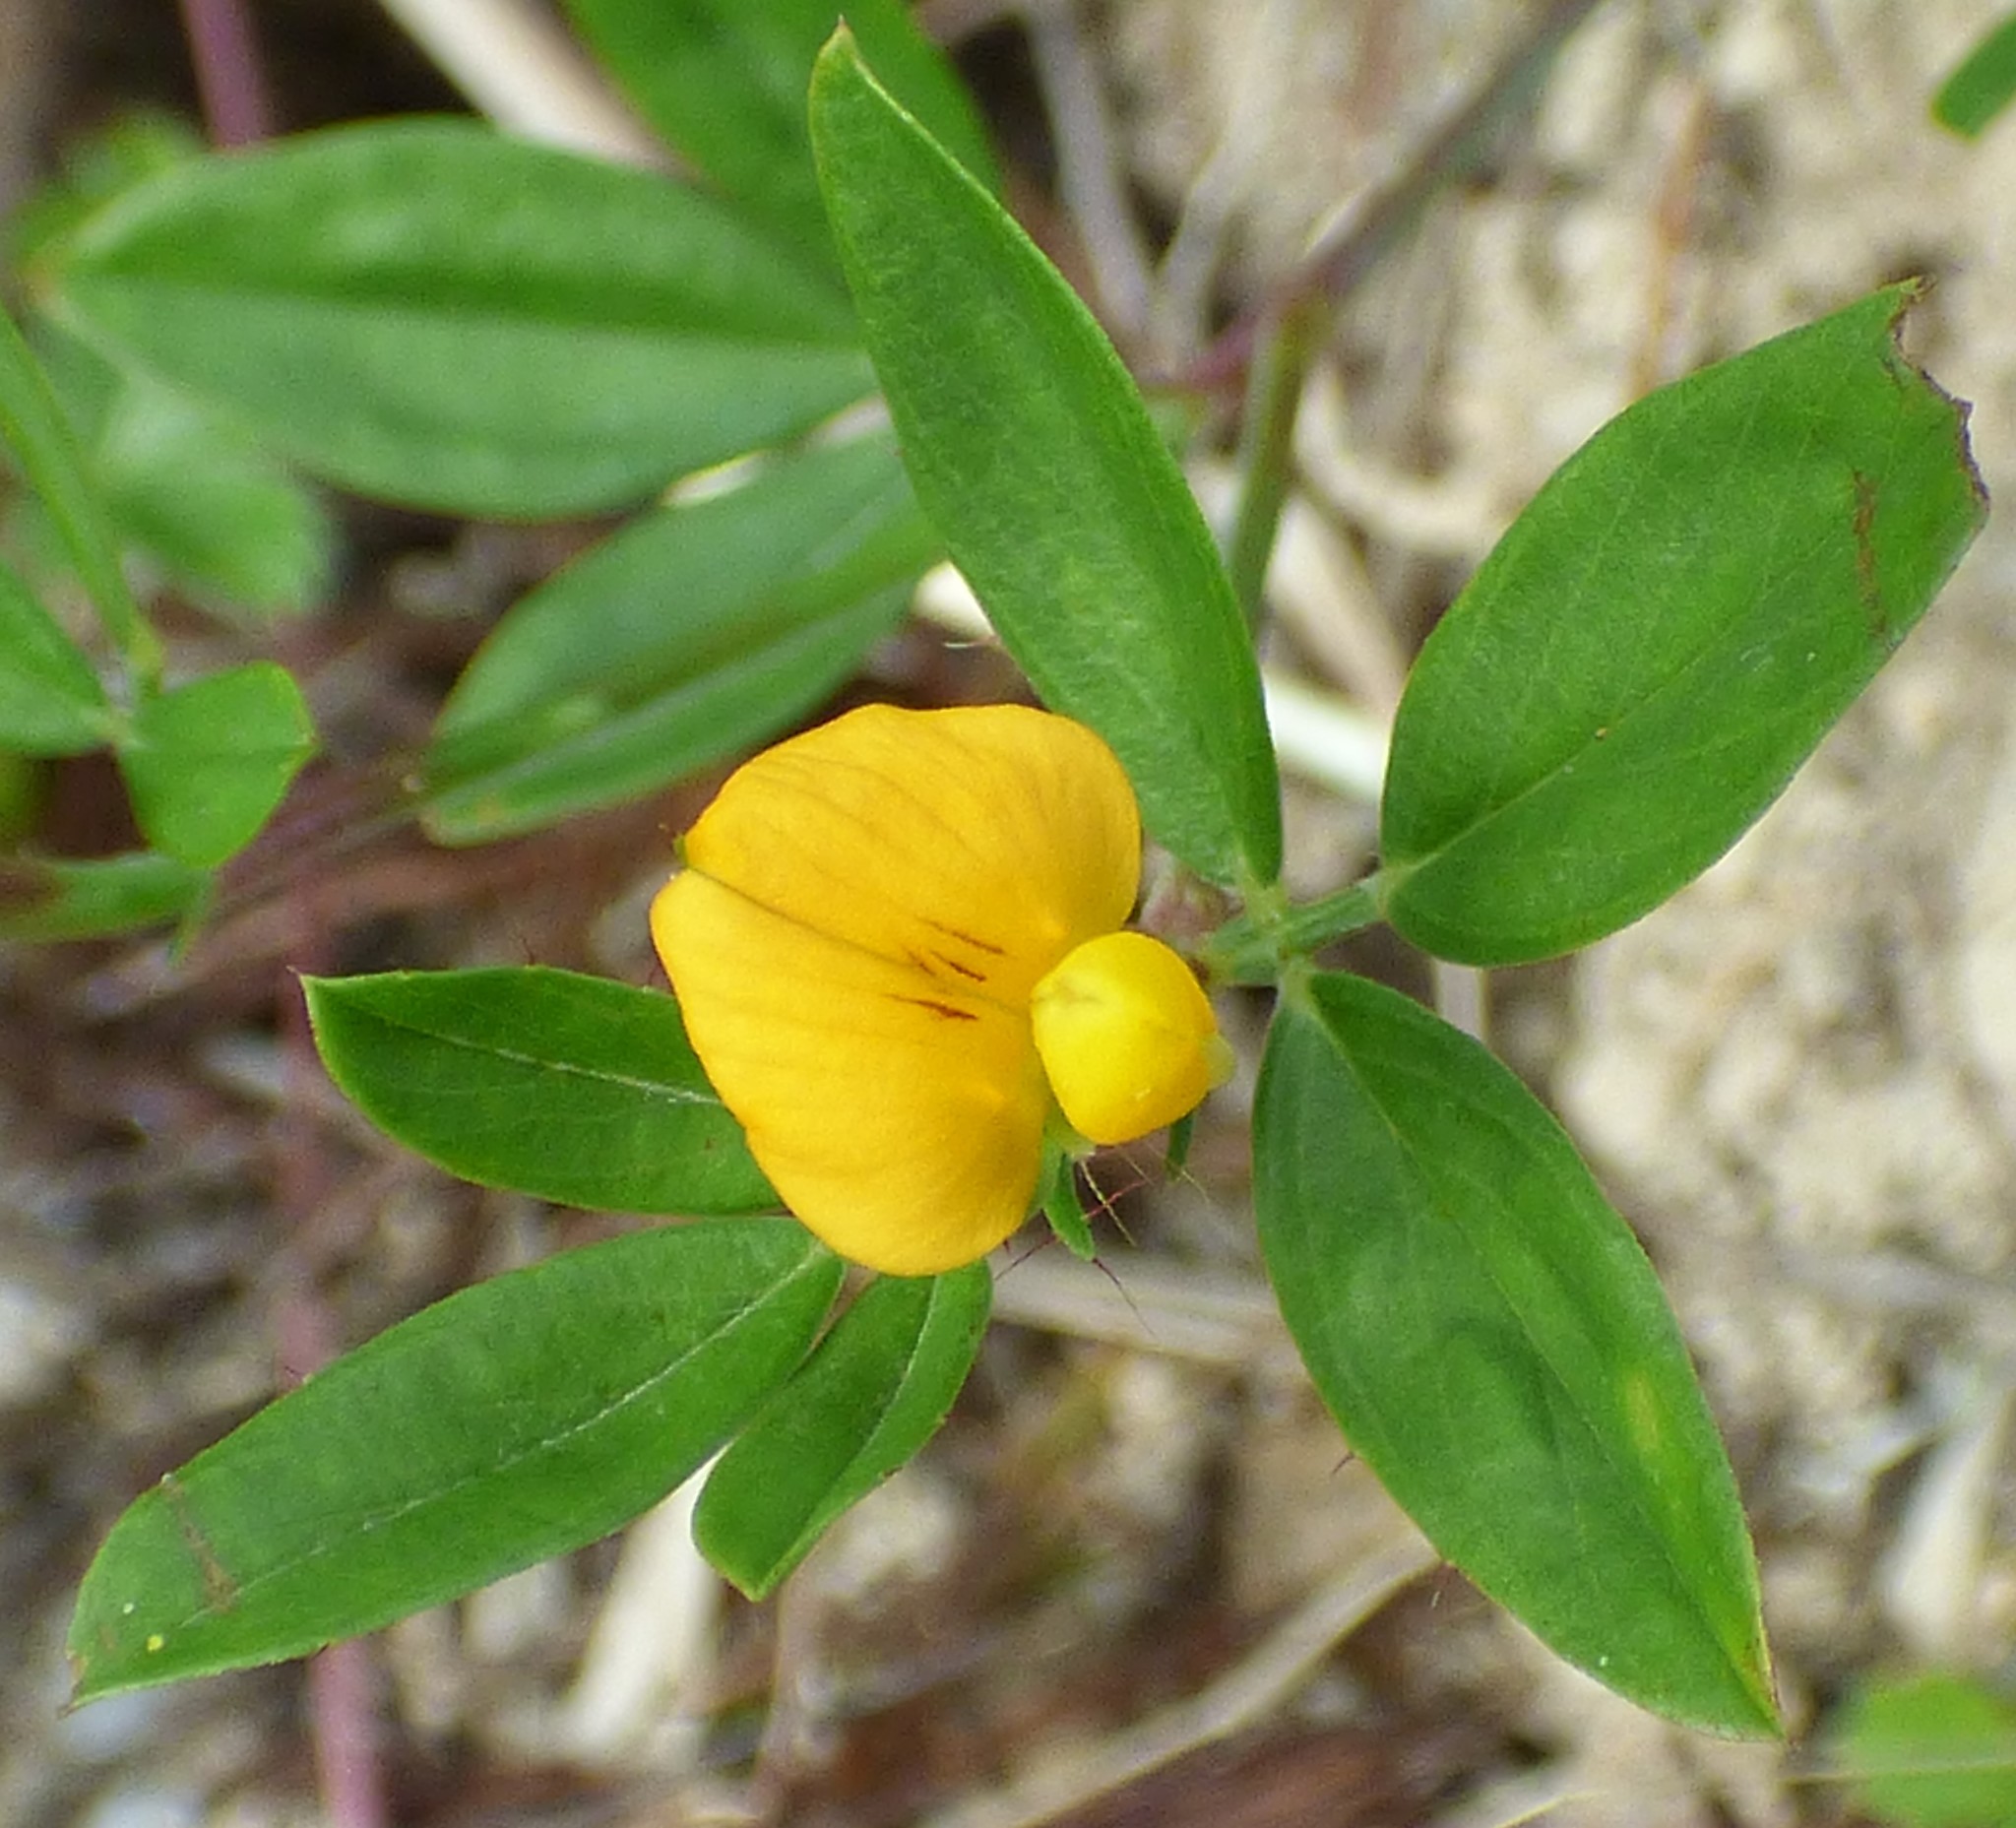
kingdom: Plantae
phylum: Tracheophyta
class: Magnoliopsida
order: Fabales
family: Fabaceae
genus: Stylosanthes
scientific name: Stylosanthes biflora
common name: Two-flower pencil-flower
